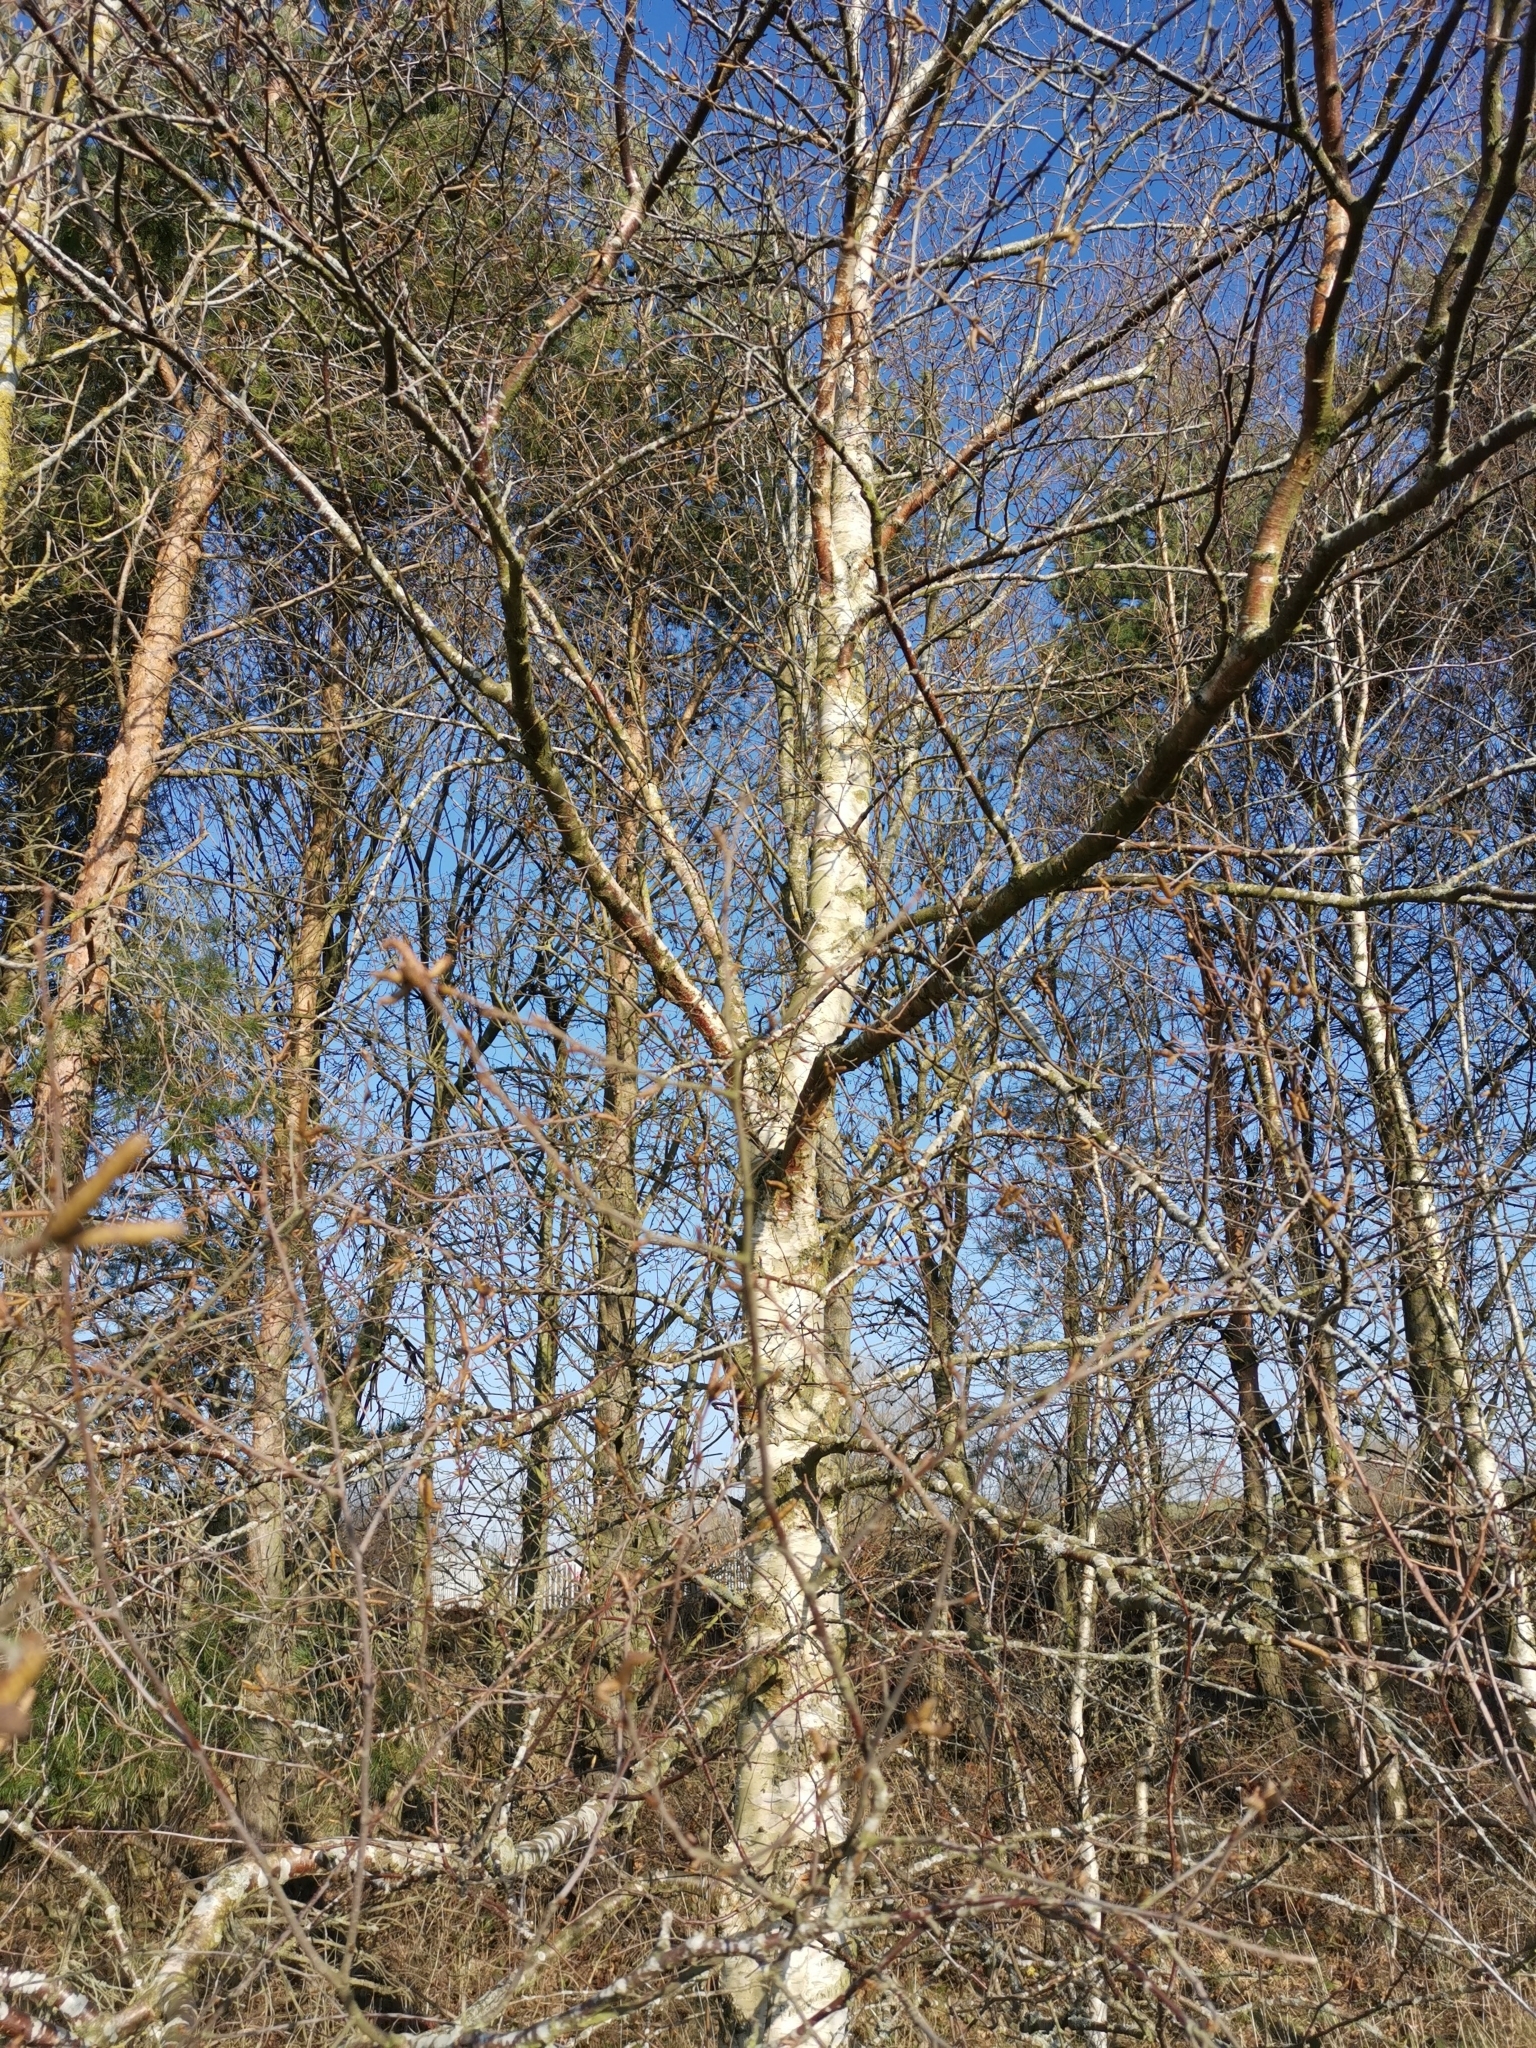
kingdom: Plantae
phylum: Tracheophyta
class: Magnoliopsida
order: Fagales
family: Betulaceae
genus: Betula
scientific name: Betula pendula
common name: Silver birch
